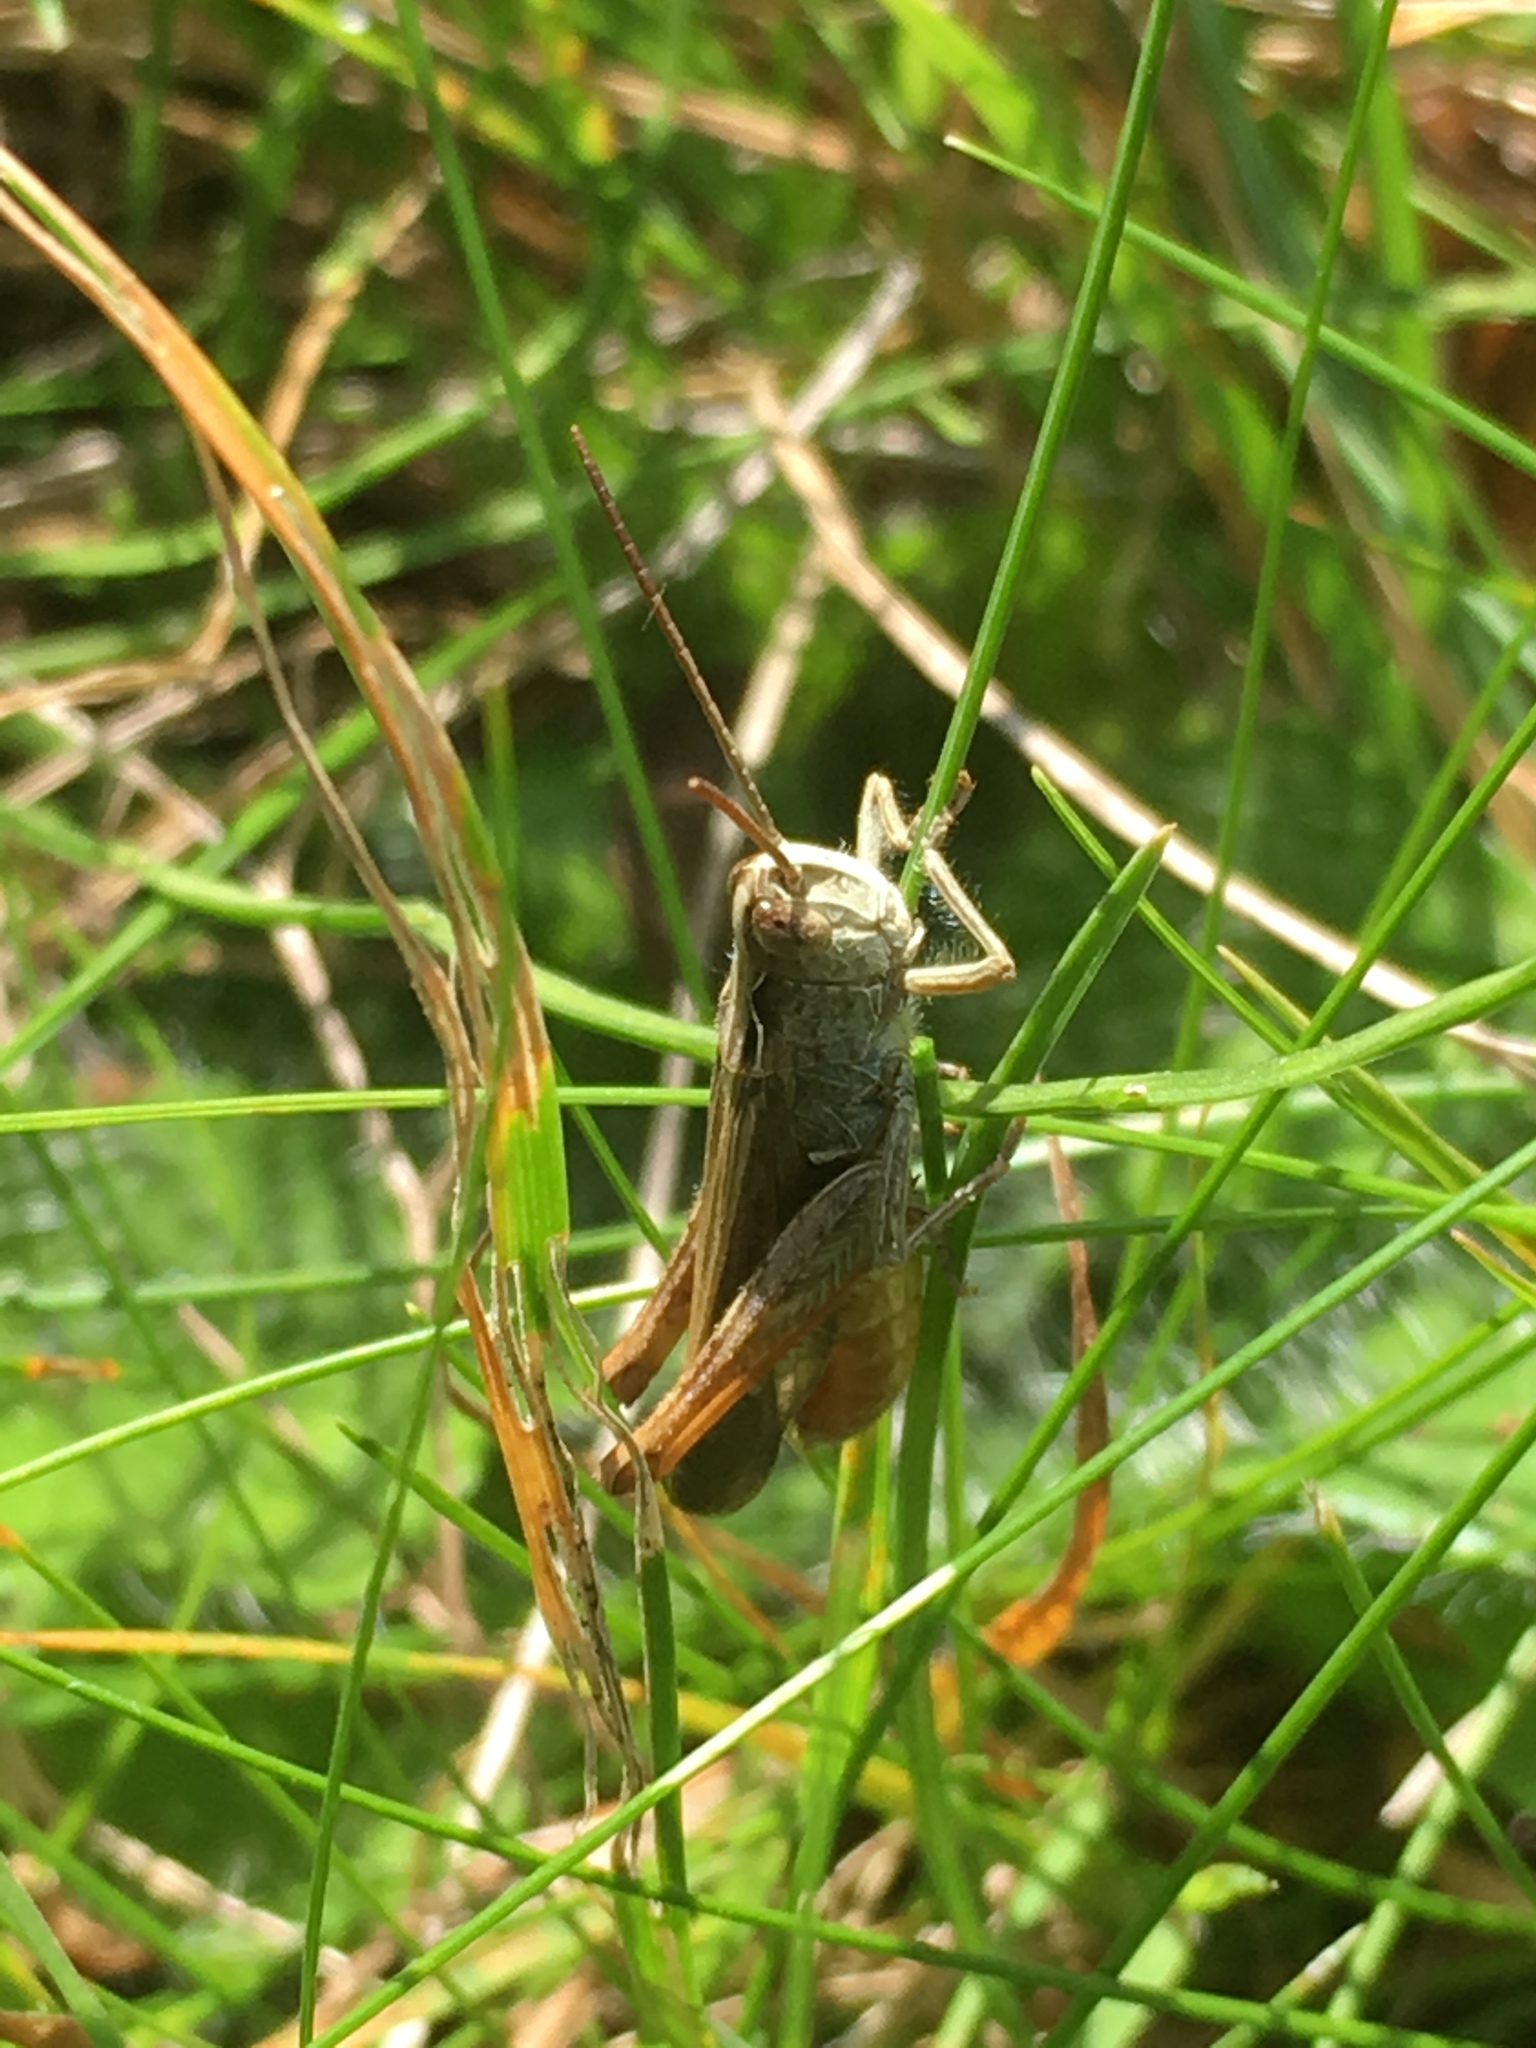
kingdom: Animalia
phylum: Arthropoda
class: Insecta
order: Orthoptera
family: Acrididae
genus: Chorthippus
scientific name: Chorthippus biguttulus
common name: Bow-winged grasshopper
